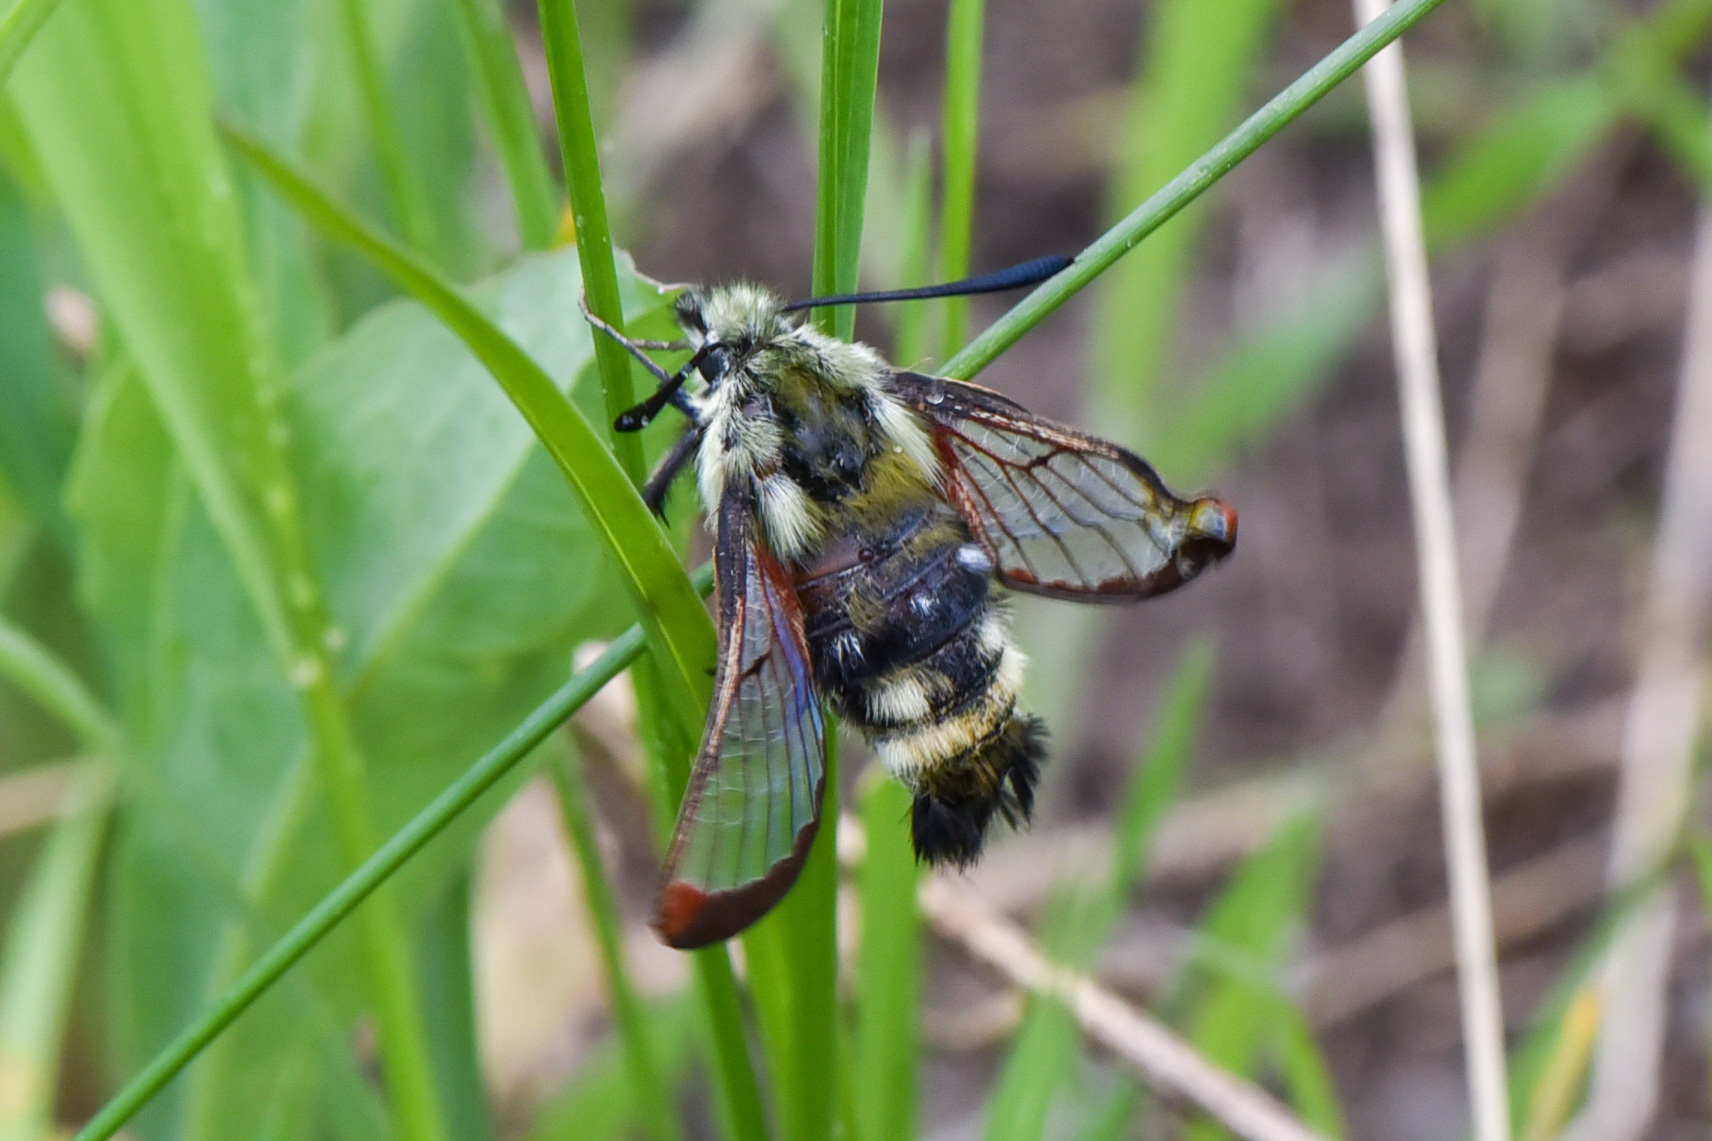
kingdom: Animalia
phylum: Arthropoda
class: Insecta
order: Lepidoptera
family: Sphingidae
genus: Hemaris
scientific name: Hemaris thetis
